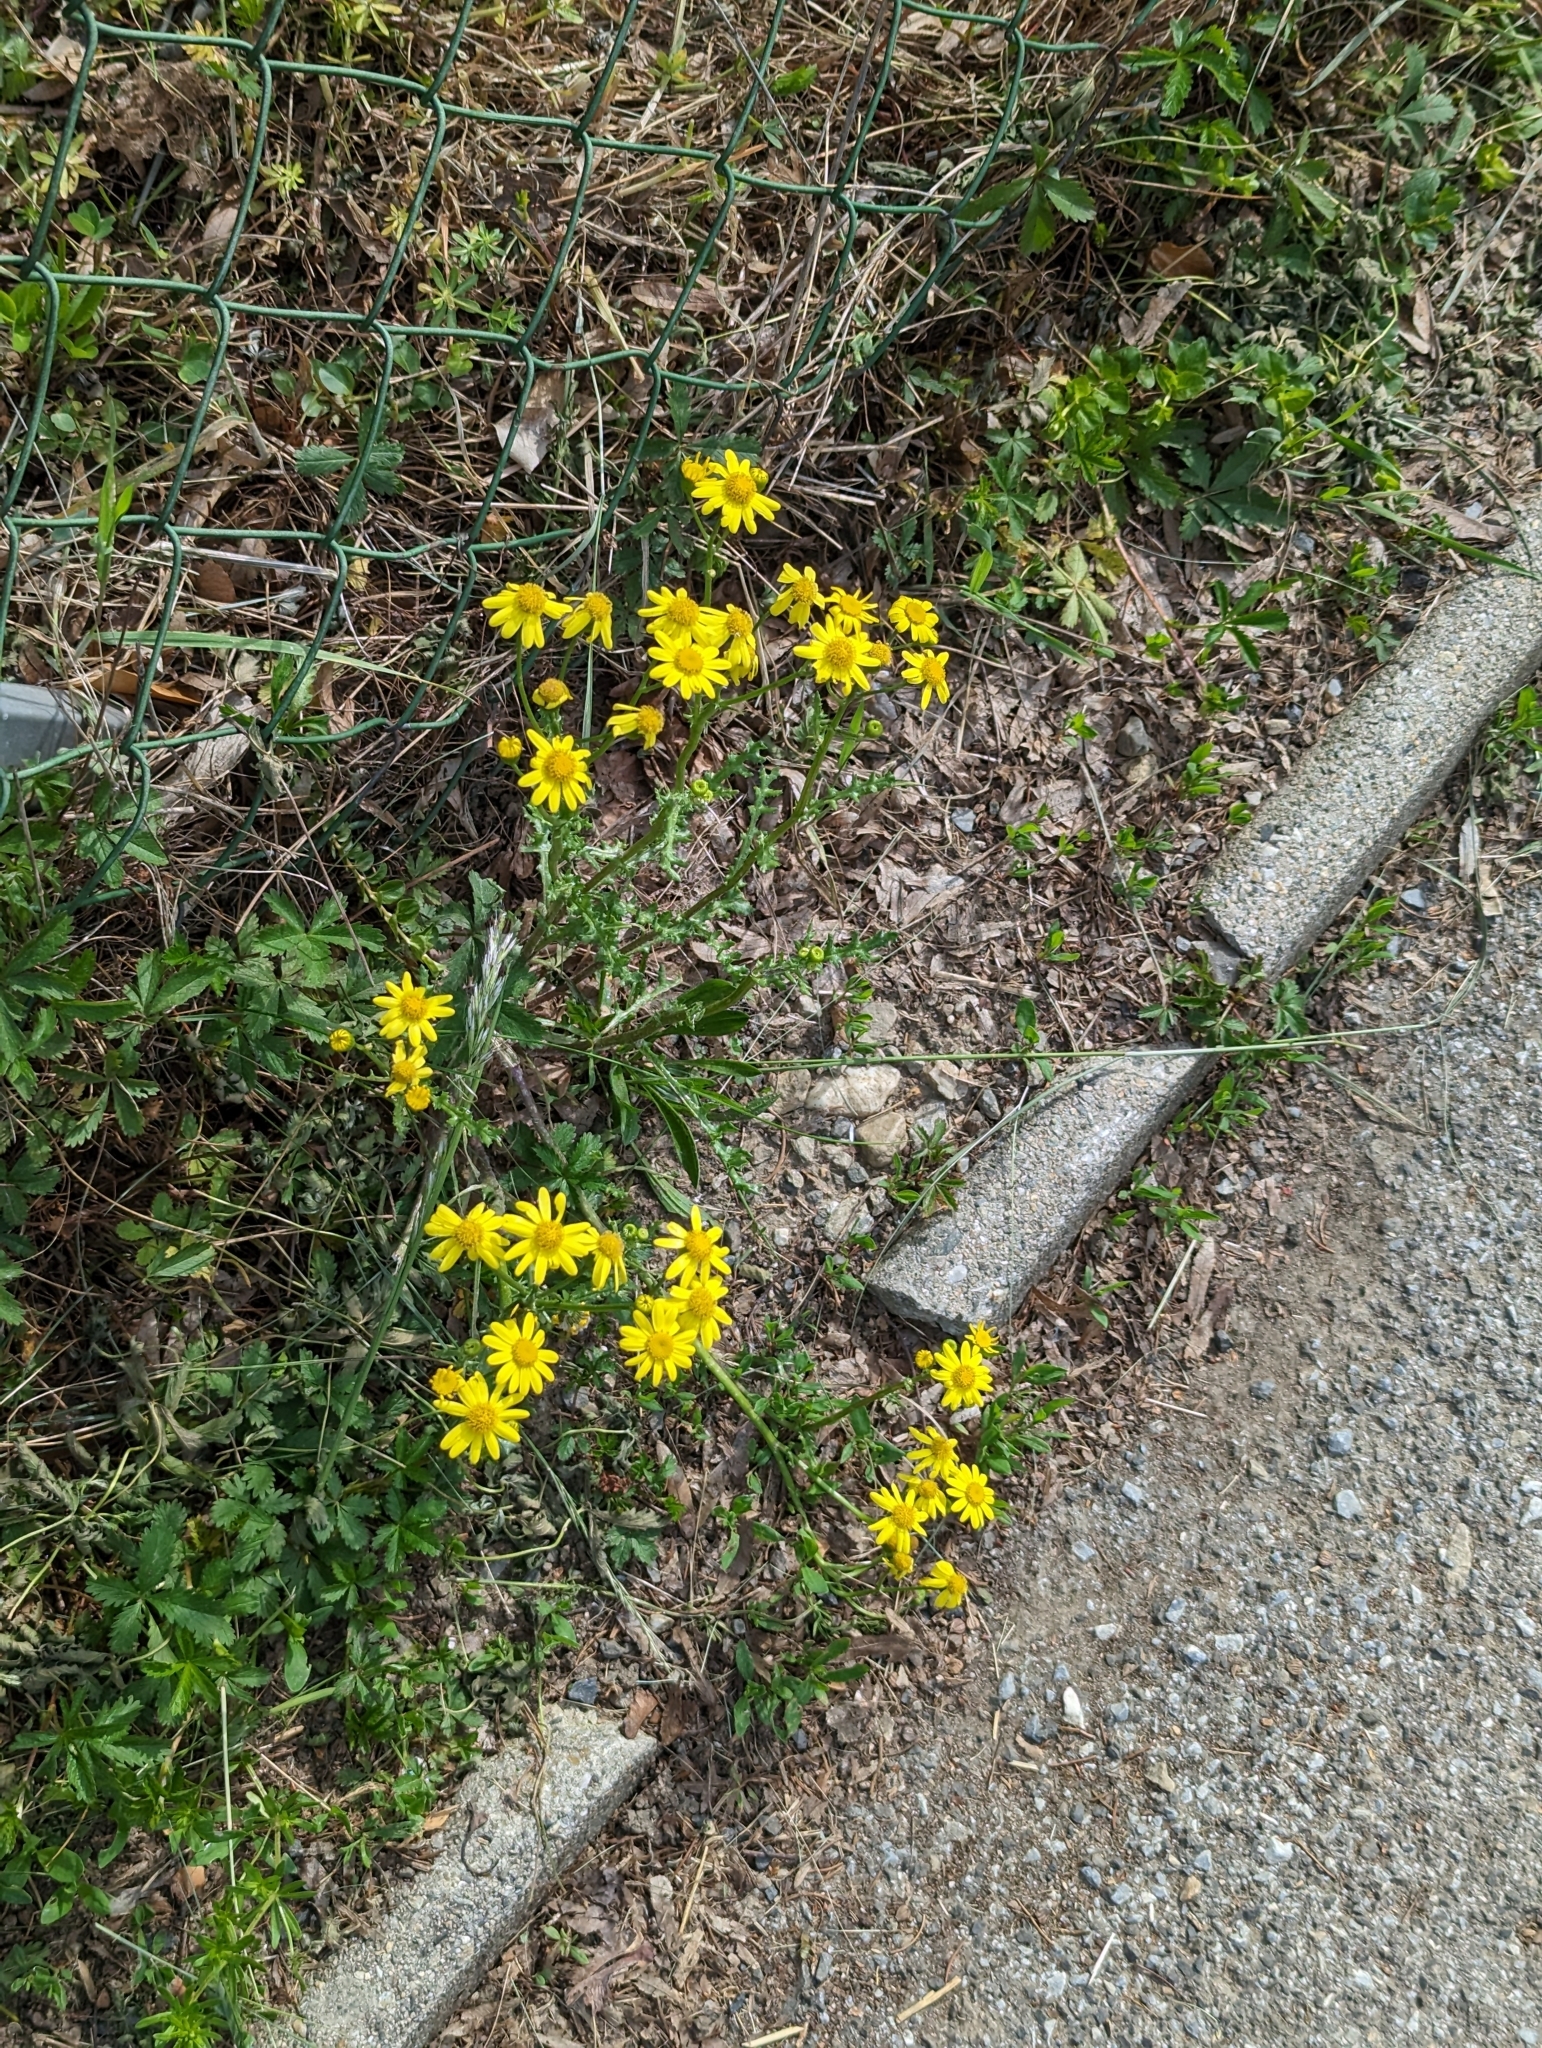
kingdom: Plantae
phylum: Tracheophyta
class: Magnoliopsida
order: Asterales
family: Asteraceae
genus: Senecio
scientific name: Senecio vernalis
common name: Eastern groundsel
